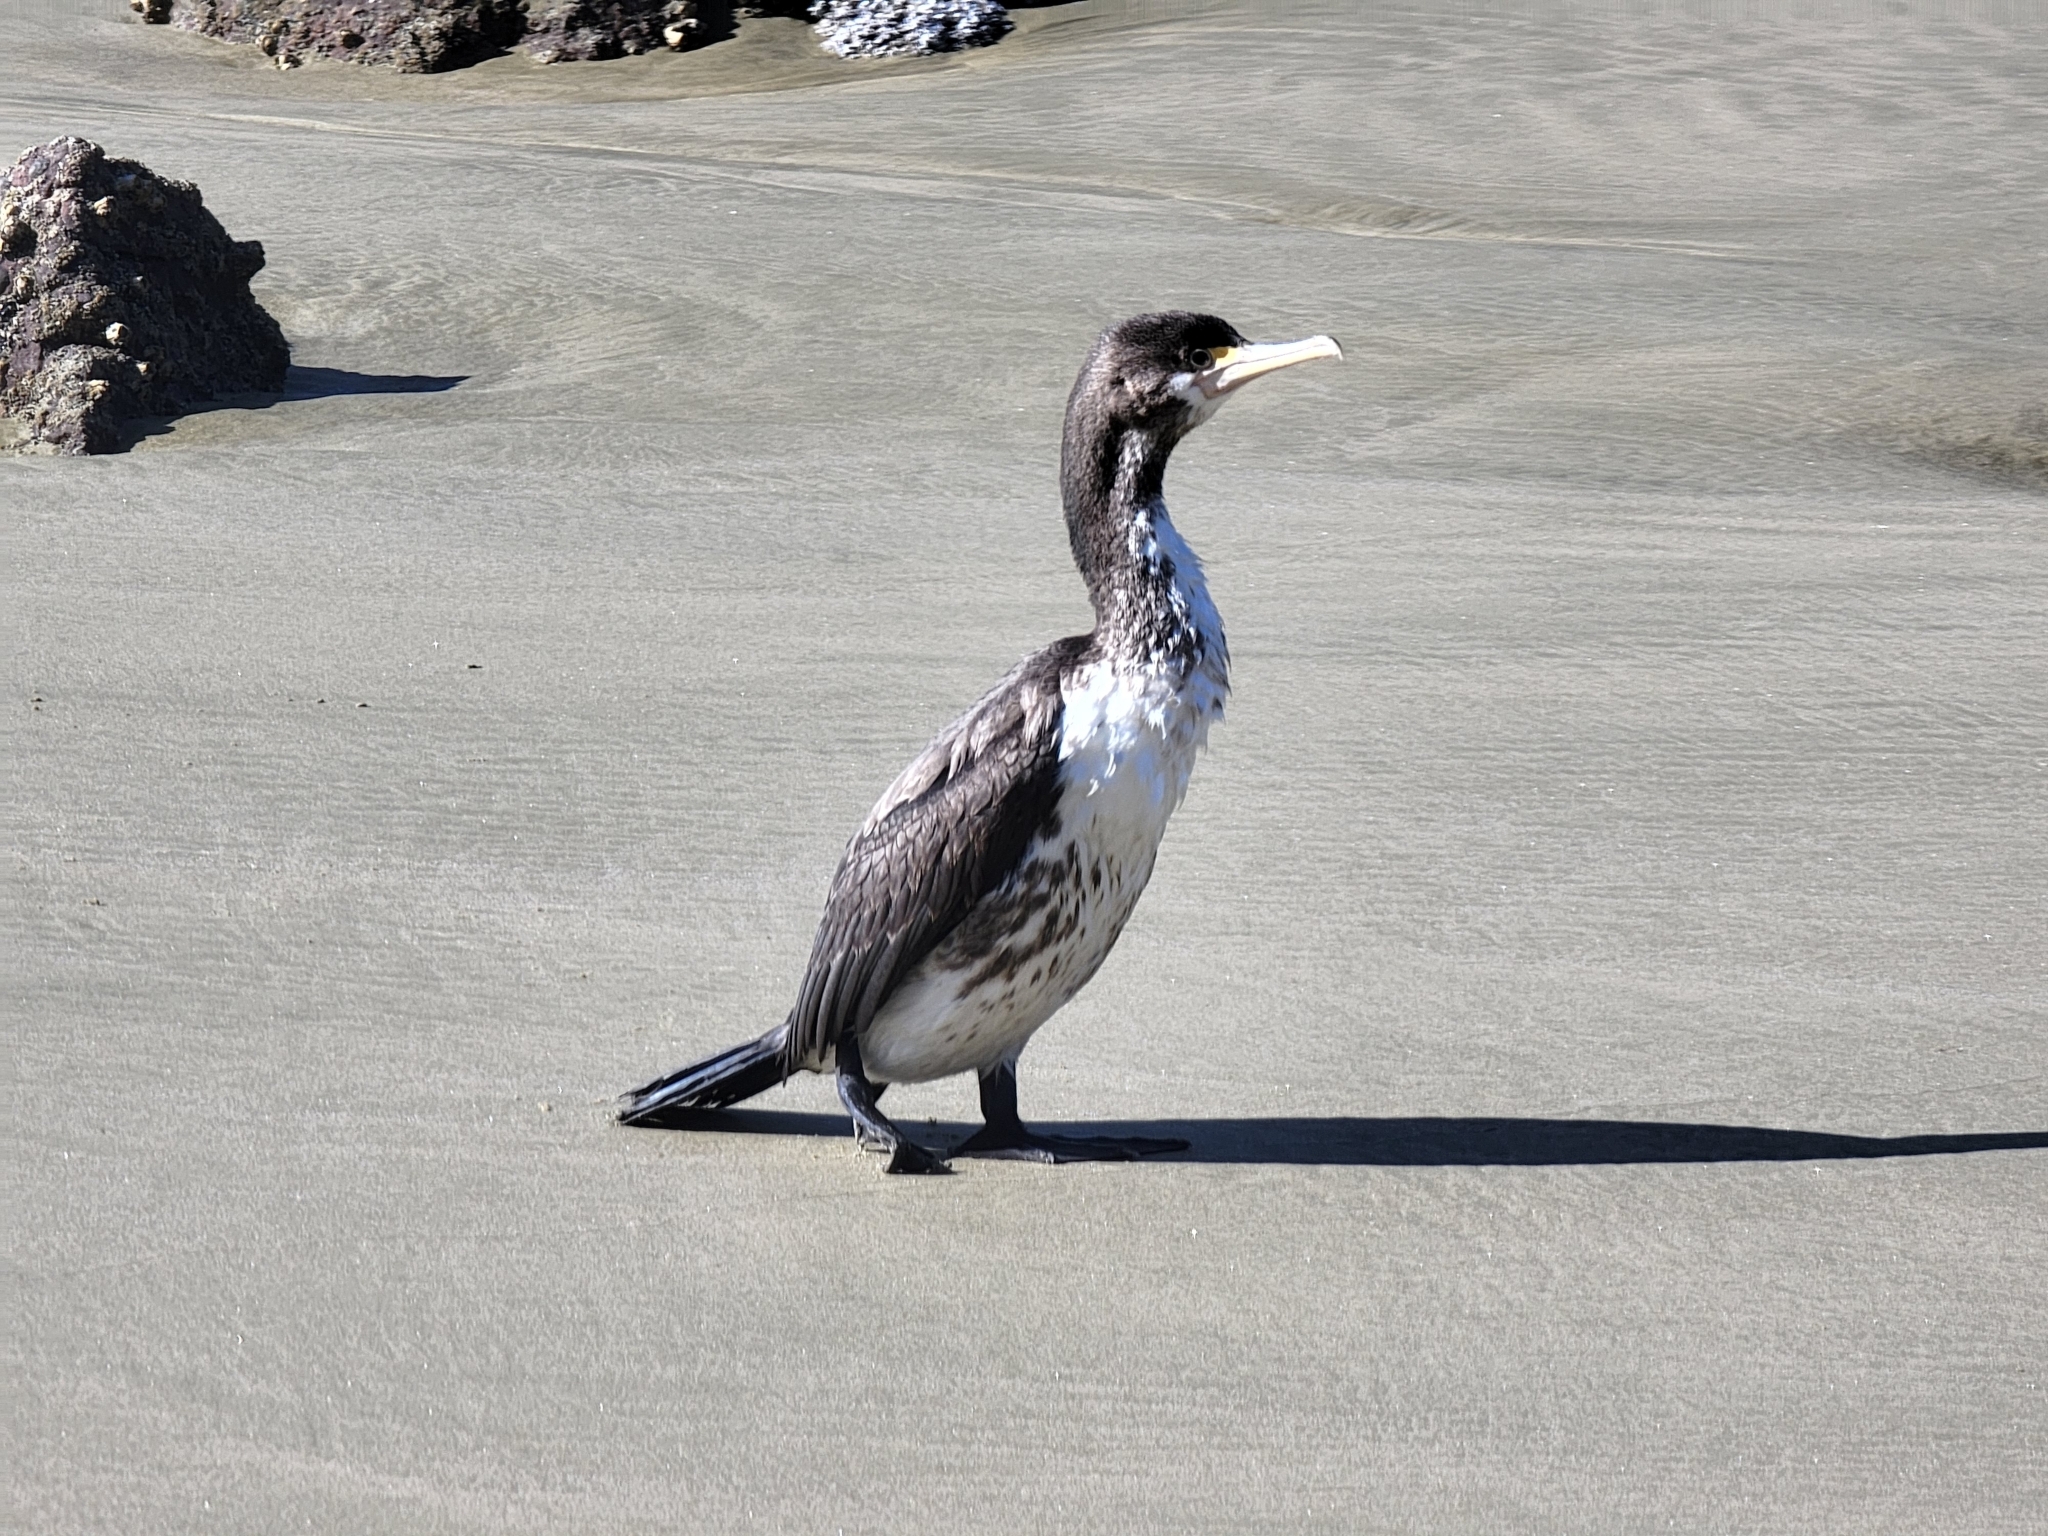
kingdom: Animalia
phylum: Chordata
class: Aves
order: Suliformes
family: Phalacrocoracidae
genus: Phalacrocorax
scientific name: Phalacrocorax varius
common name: Pied cormorant
